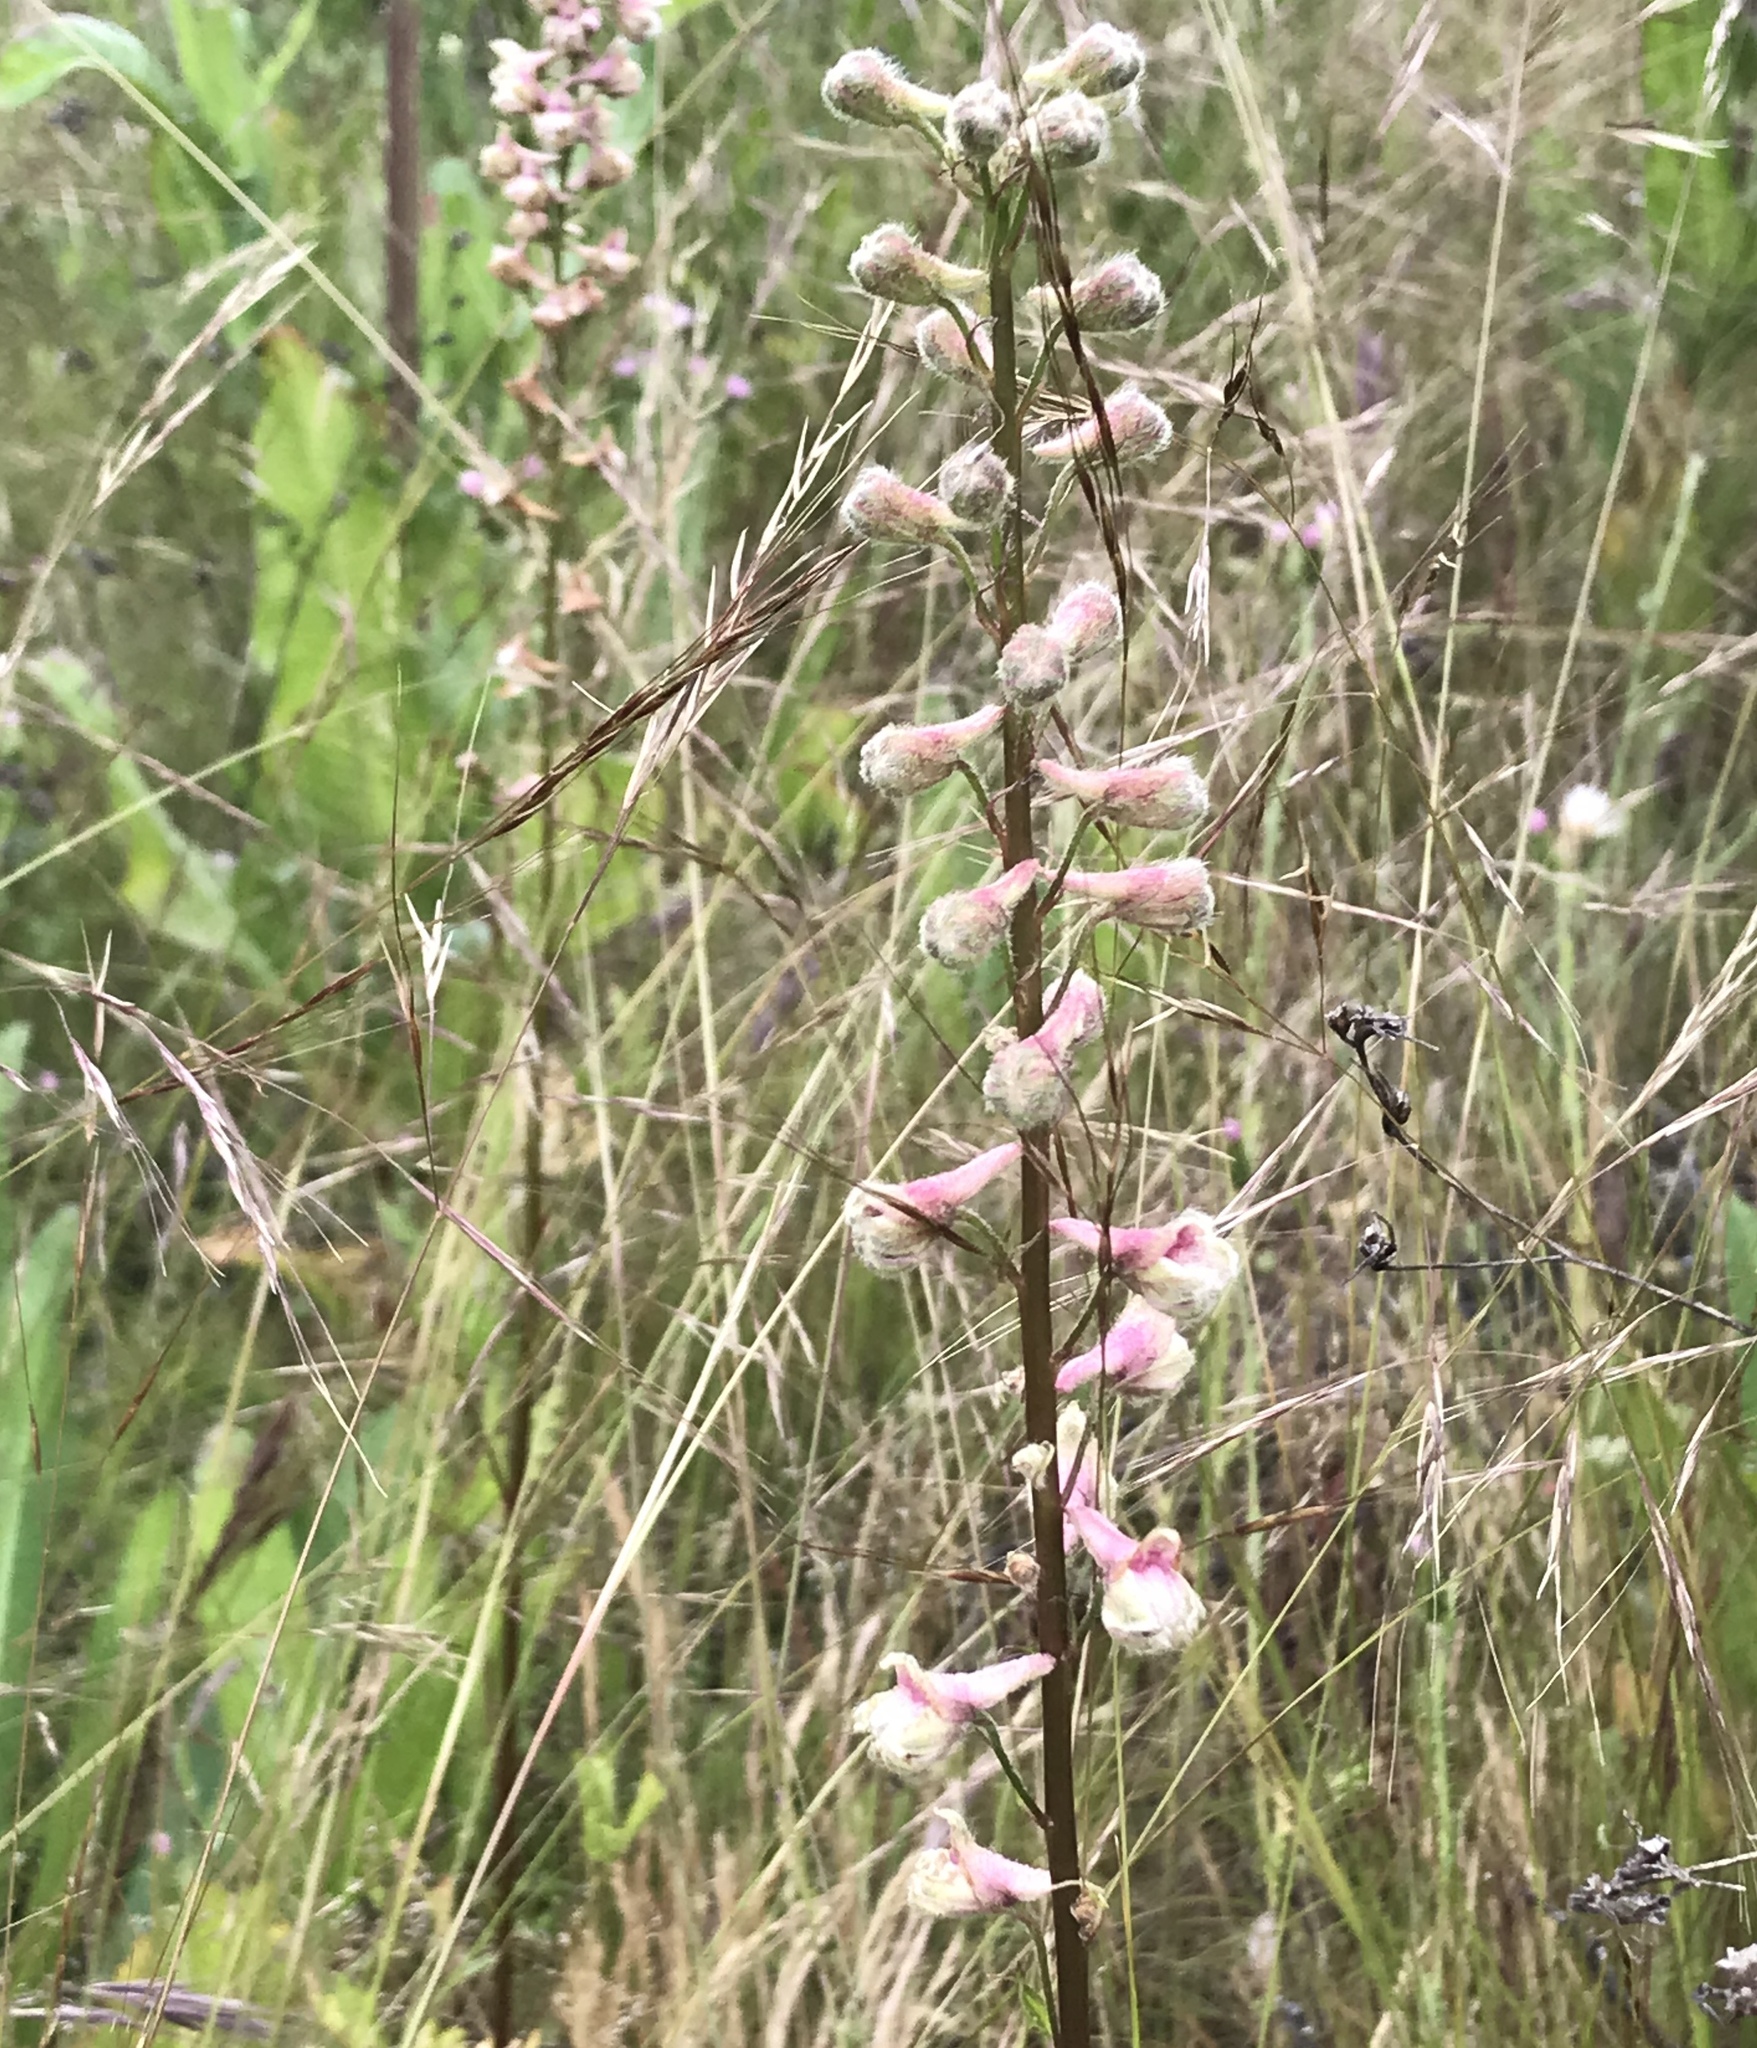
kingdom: Plantae
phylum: Tracheophyta
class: Magnoliopsida
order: Ranunculales
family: Ranunculaceae
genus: Delphinium
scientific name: Delphinium californicum
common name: California larkspur
